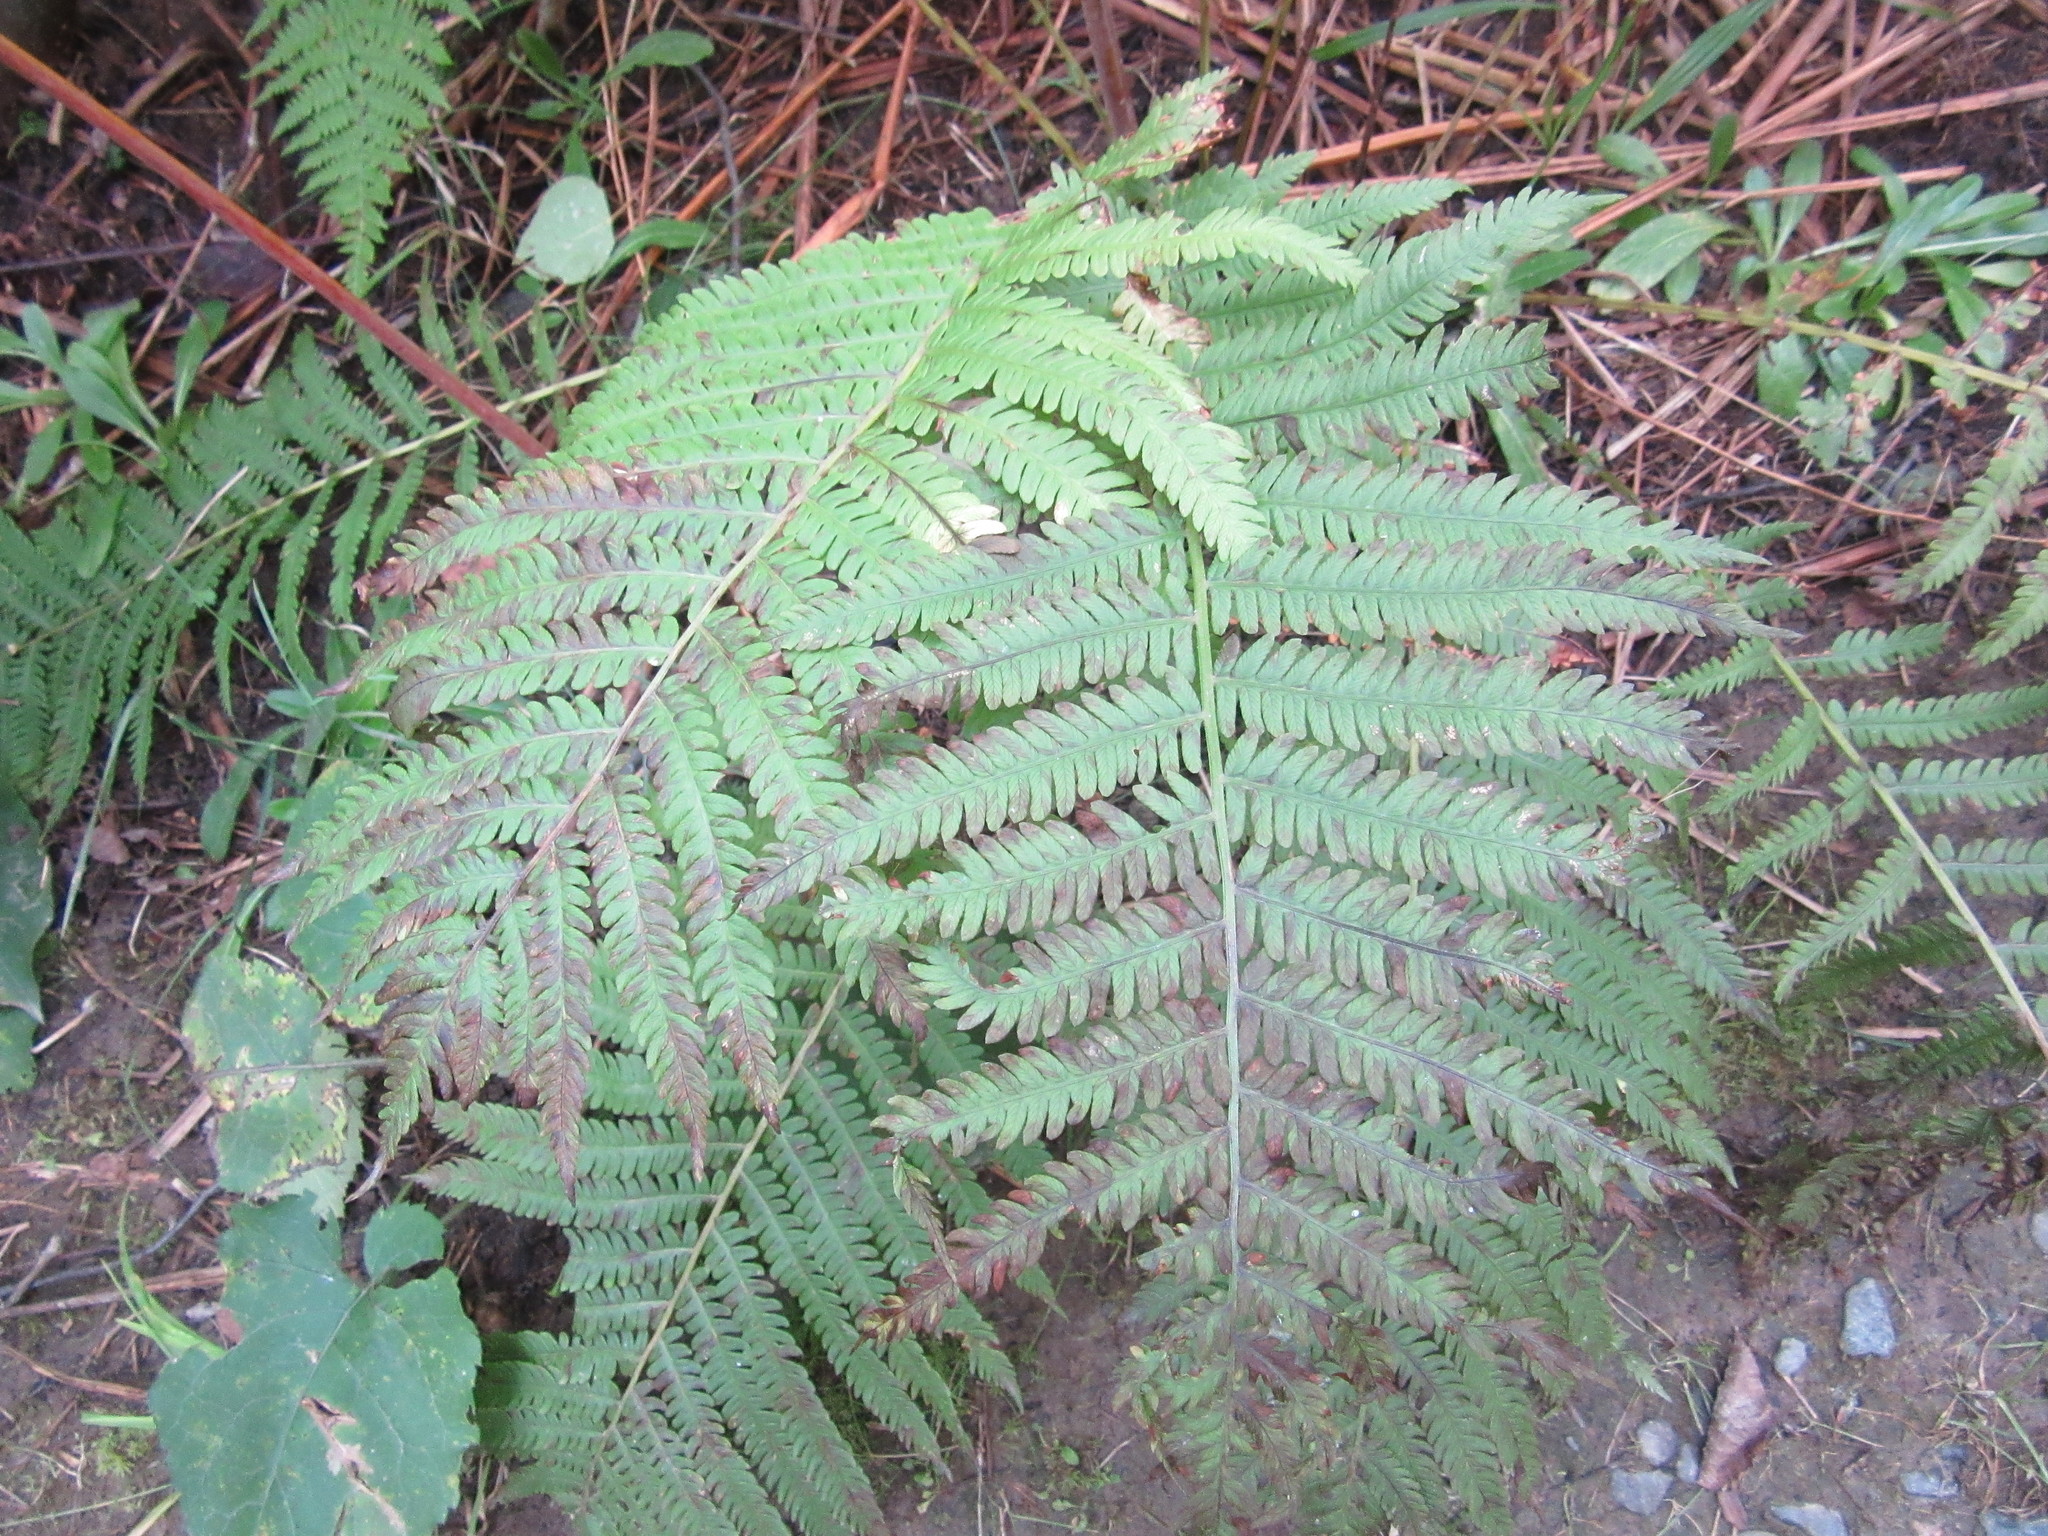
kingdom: Plantae
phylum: Tracheophyta
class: Polypodiopsida
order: Polypodiales
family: Onocleaceae
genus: Matteuccia
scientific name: Matteuccia struthiopteris
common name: Ostrich fern
